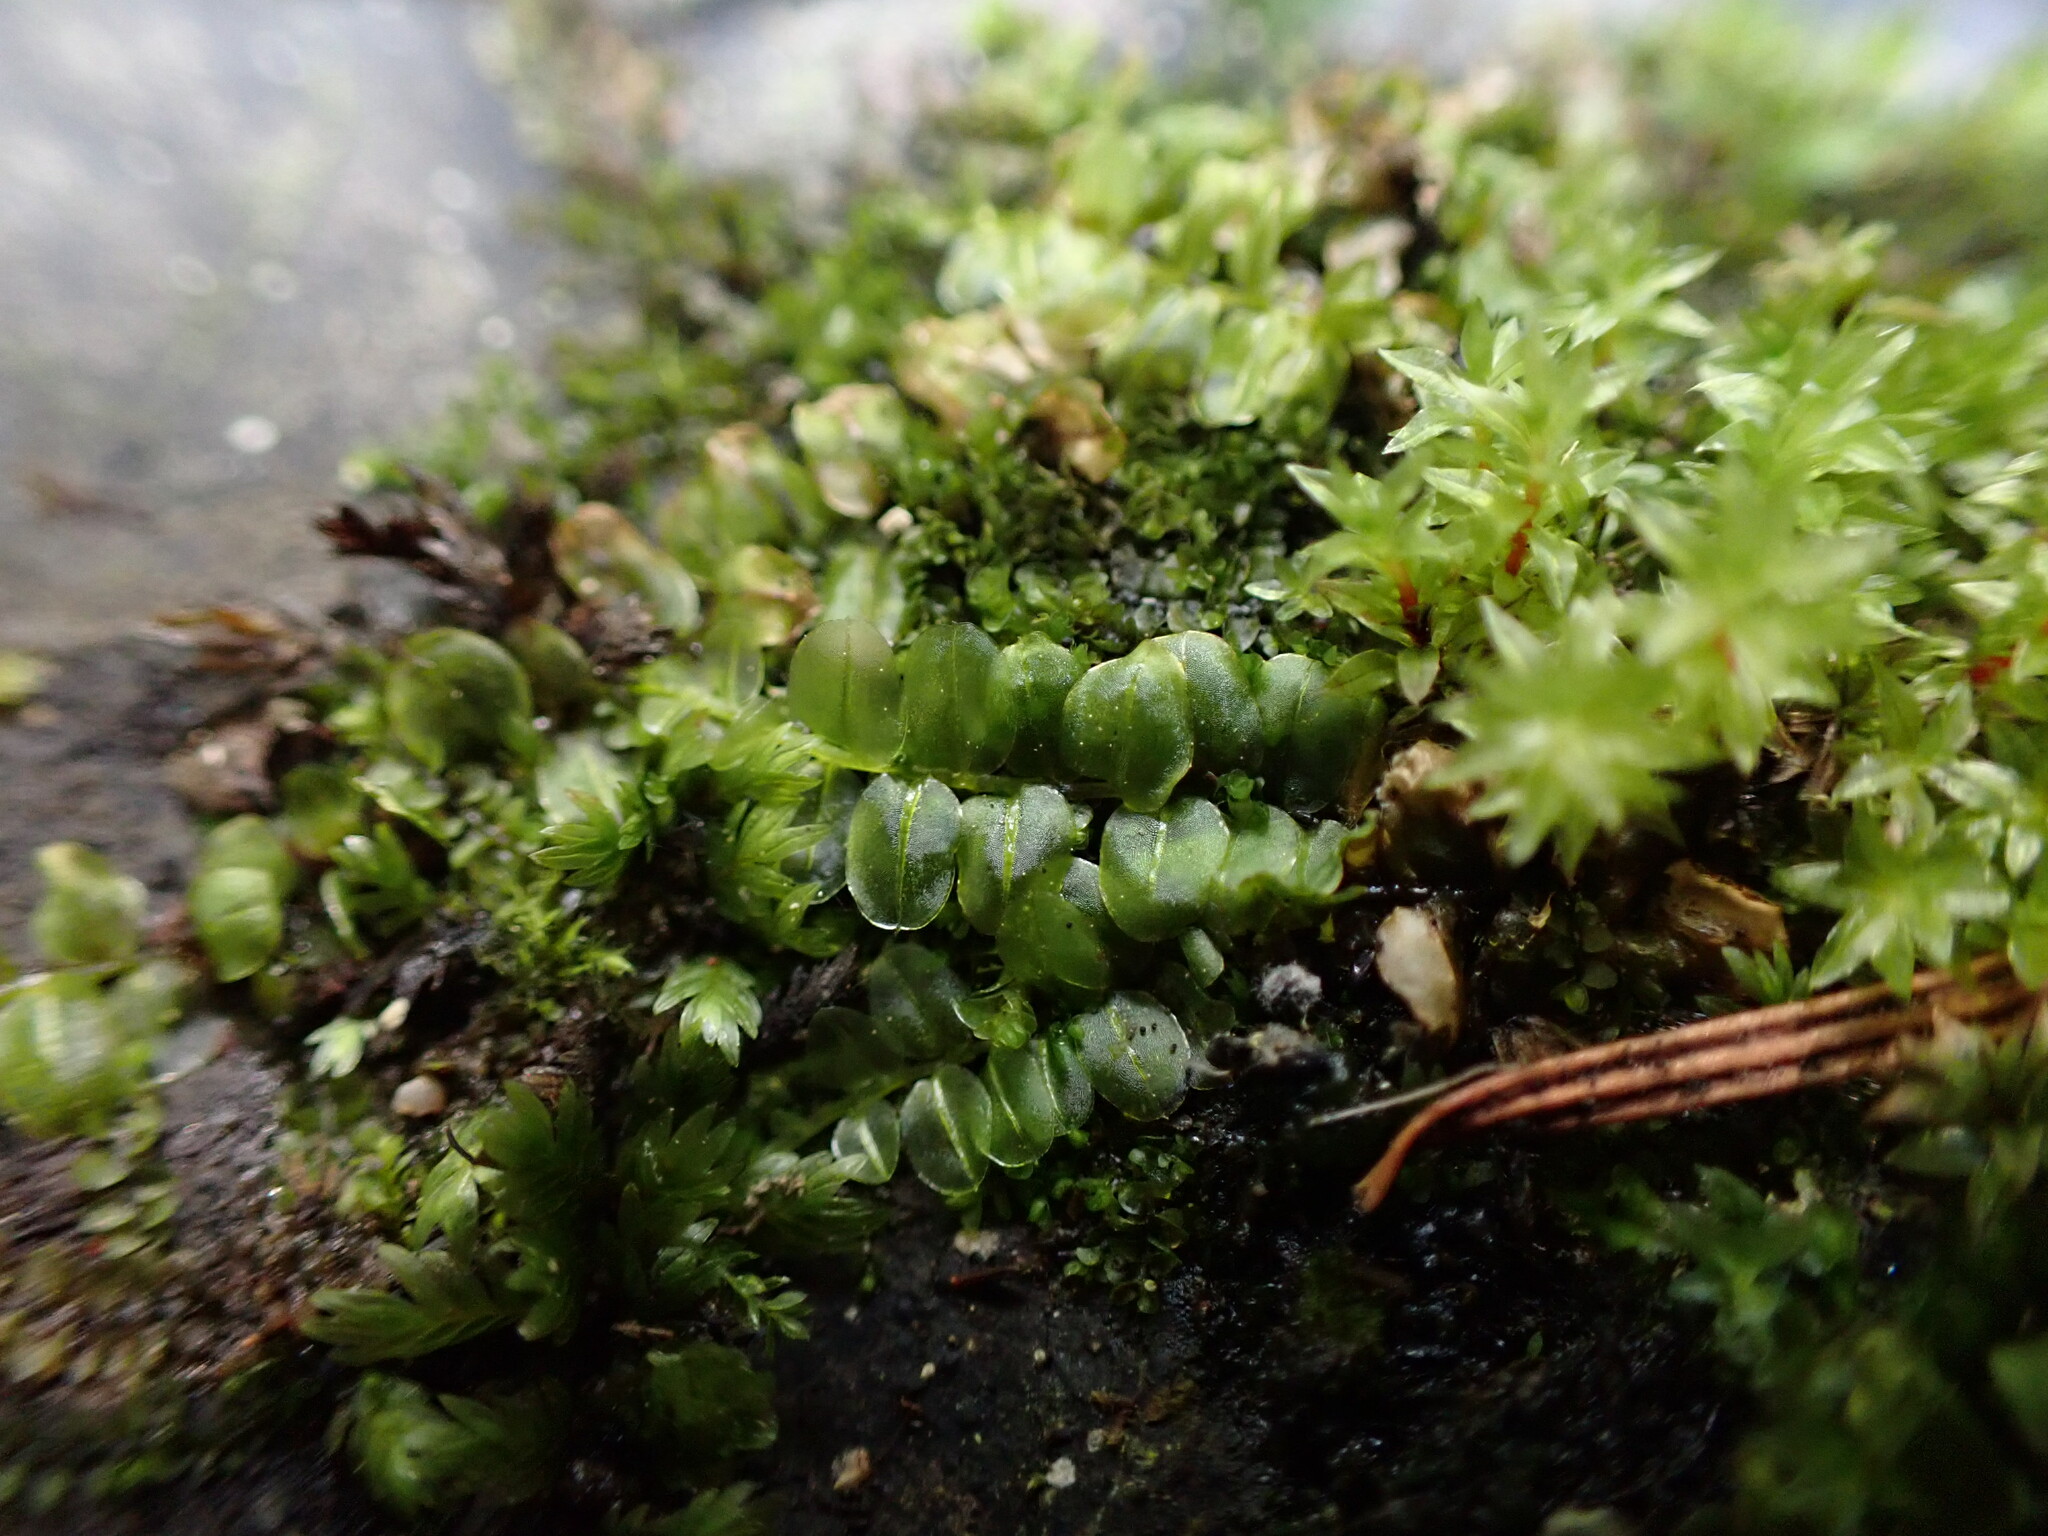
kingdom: Plantae
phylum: Bryophyta
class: Bryopsida
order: Bryales
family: Mniaceae
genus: Plagiomnium
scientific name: Plagiomnium rostratum
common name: Long-beaked leafy moss
